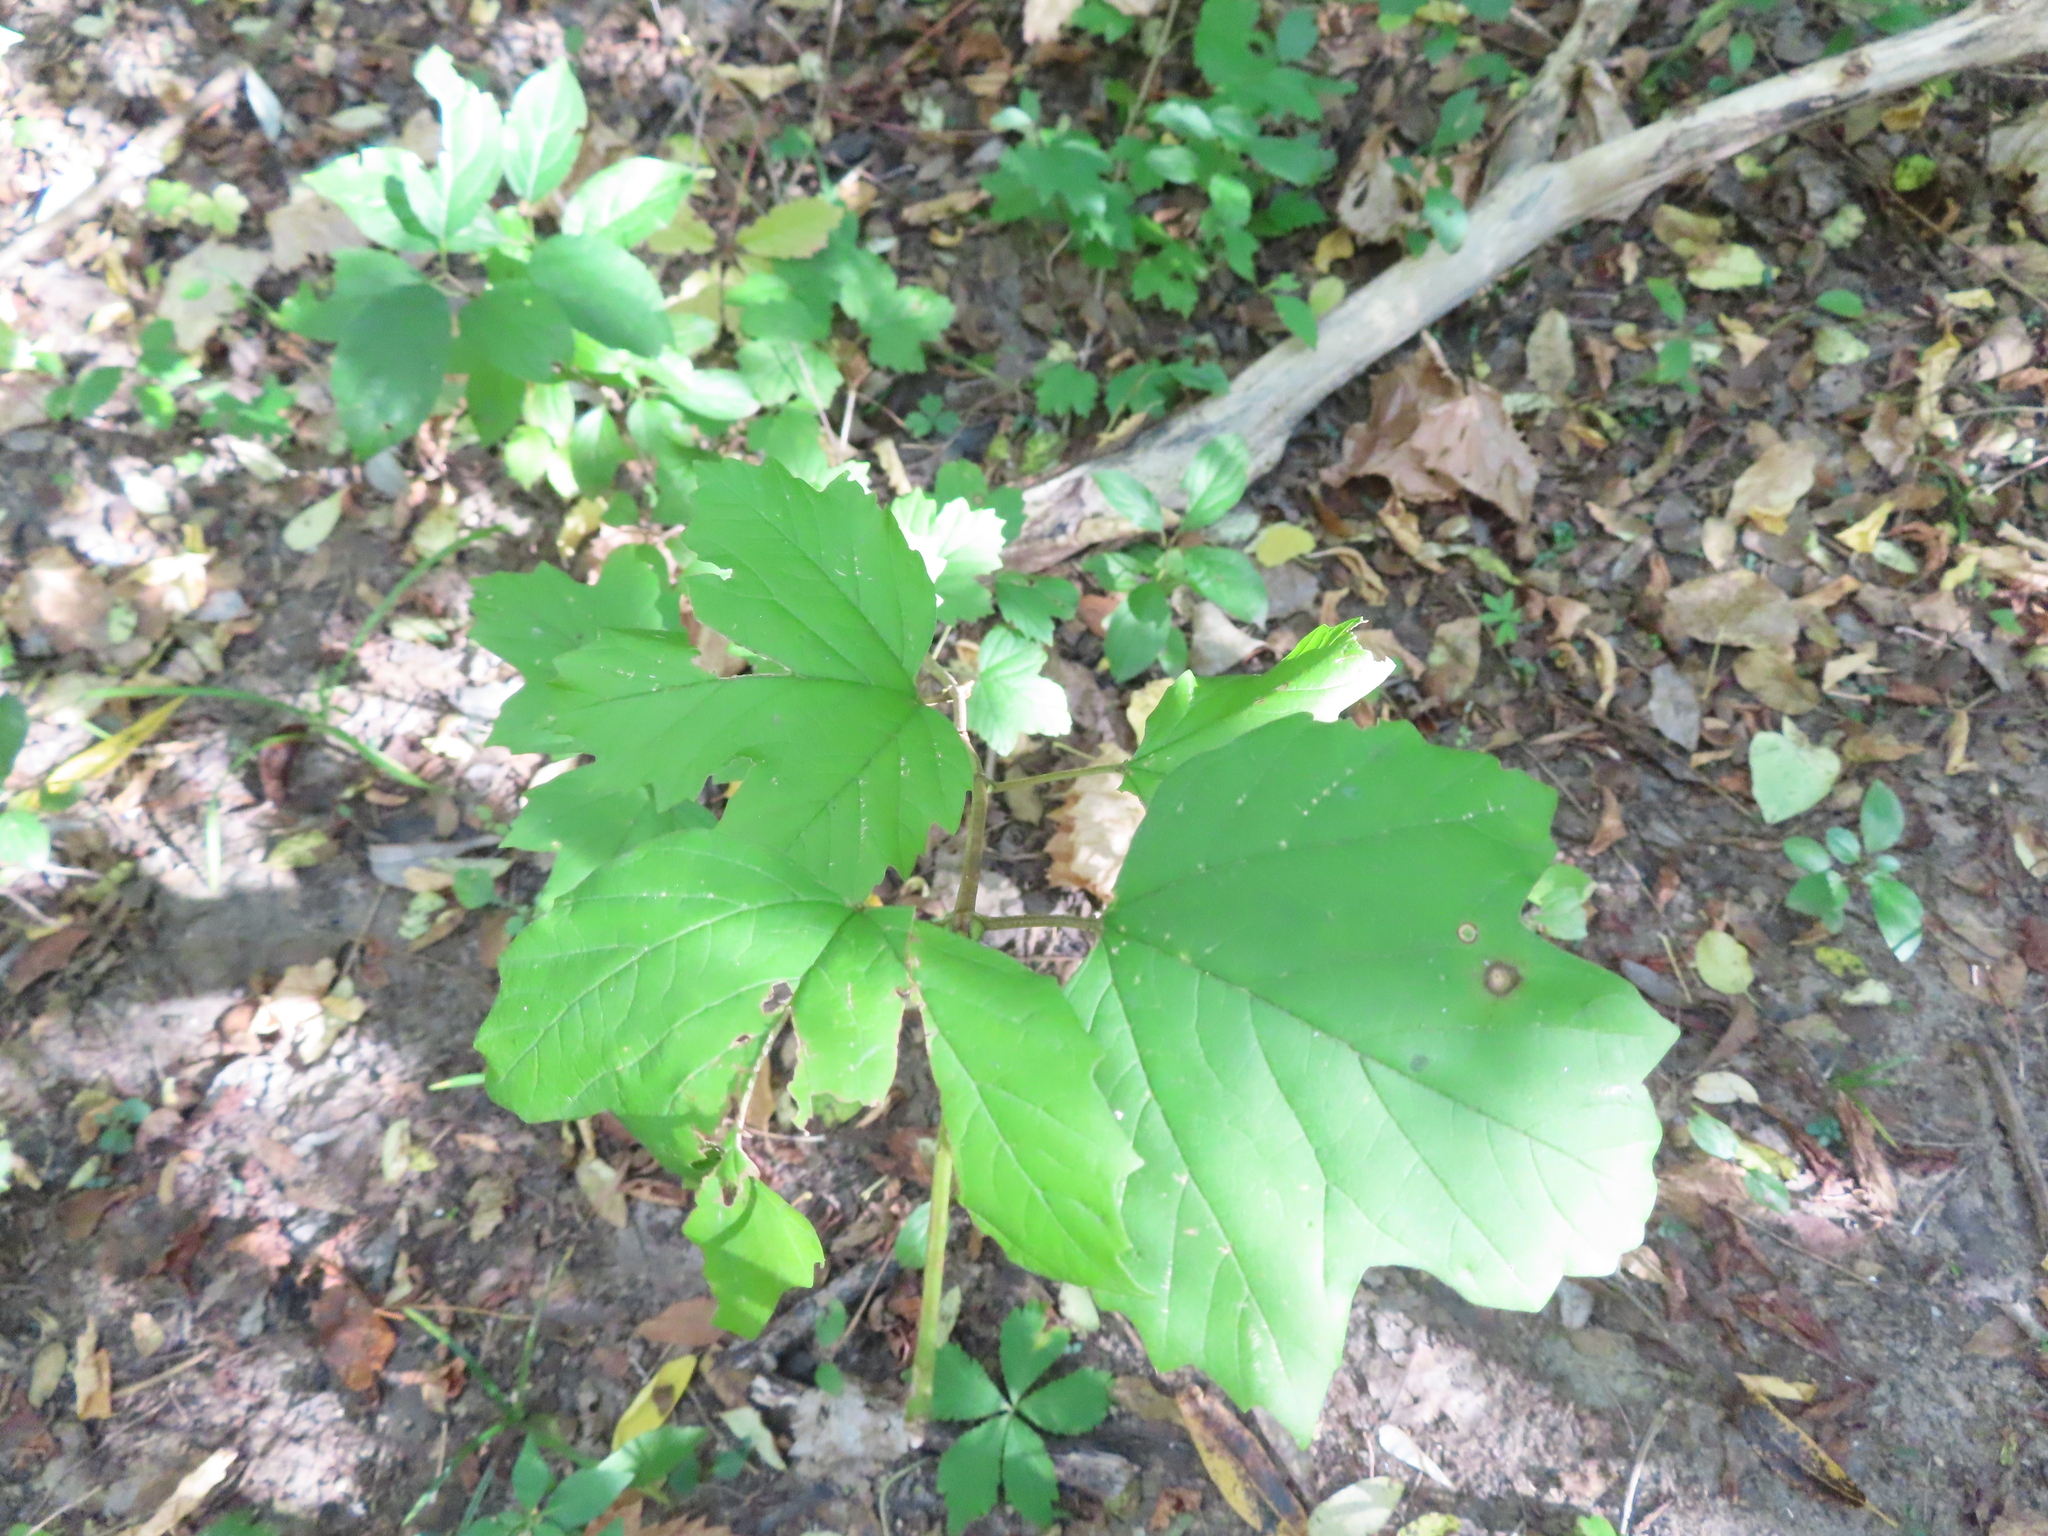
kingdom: Plantae
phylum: Tracheophyta
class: Magnoliopsida
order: Dipsacales
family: Viburnaceae
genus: Viburnum
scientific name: Viburnum opulus
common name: Guelder-rose
